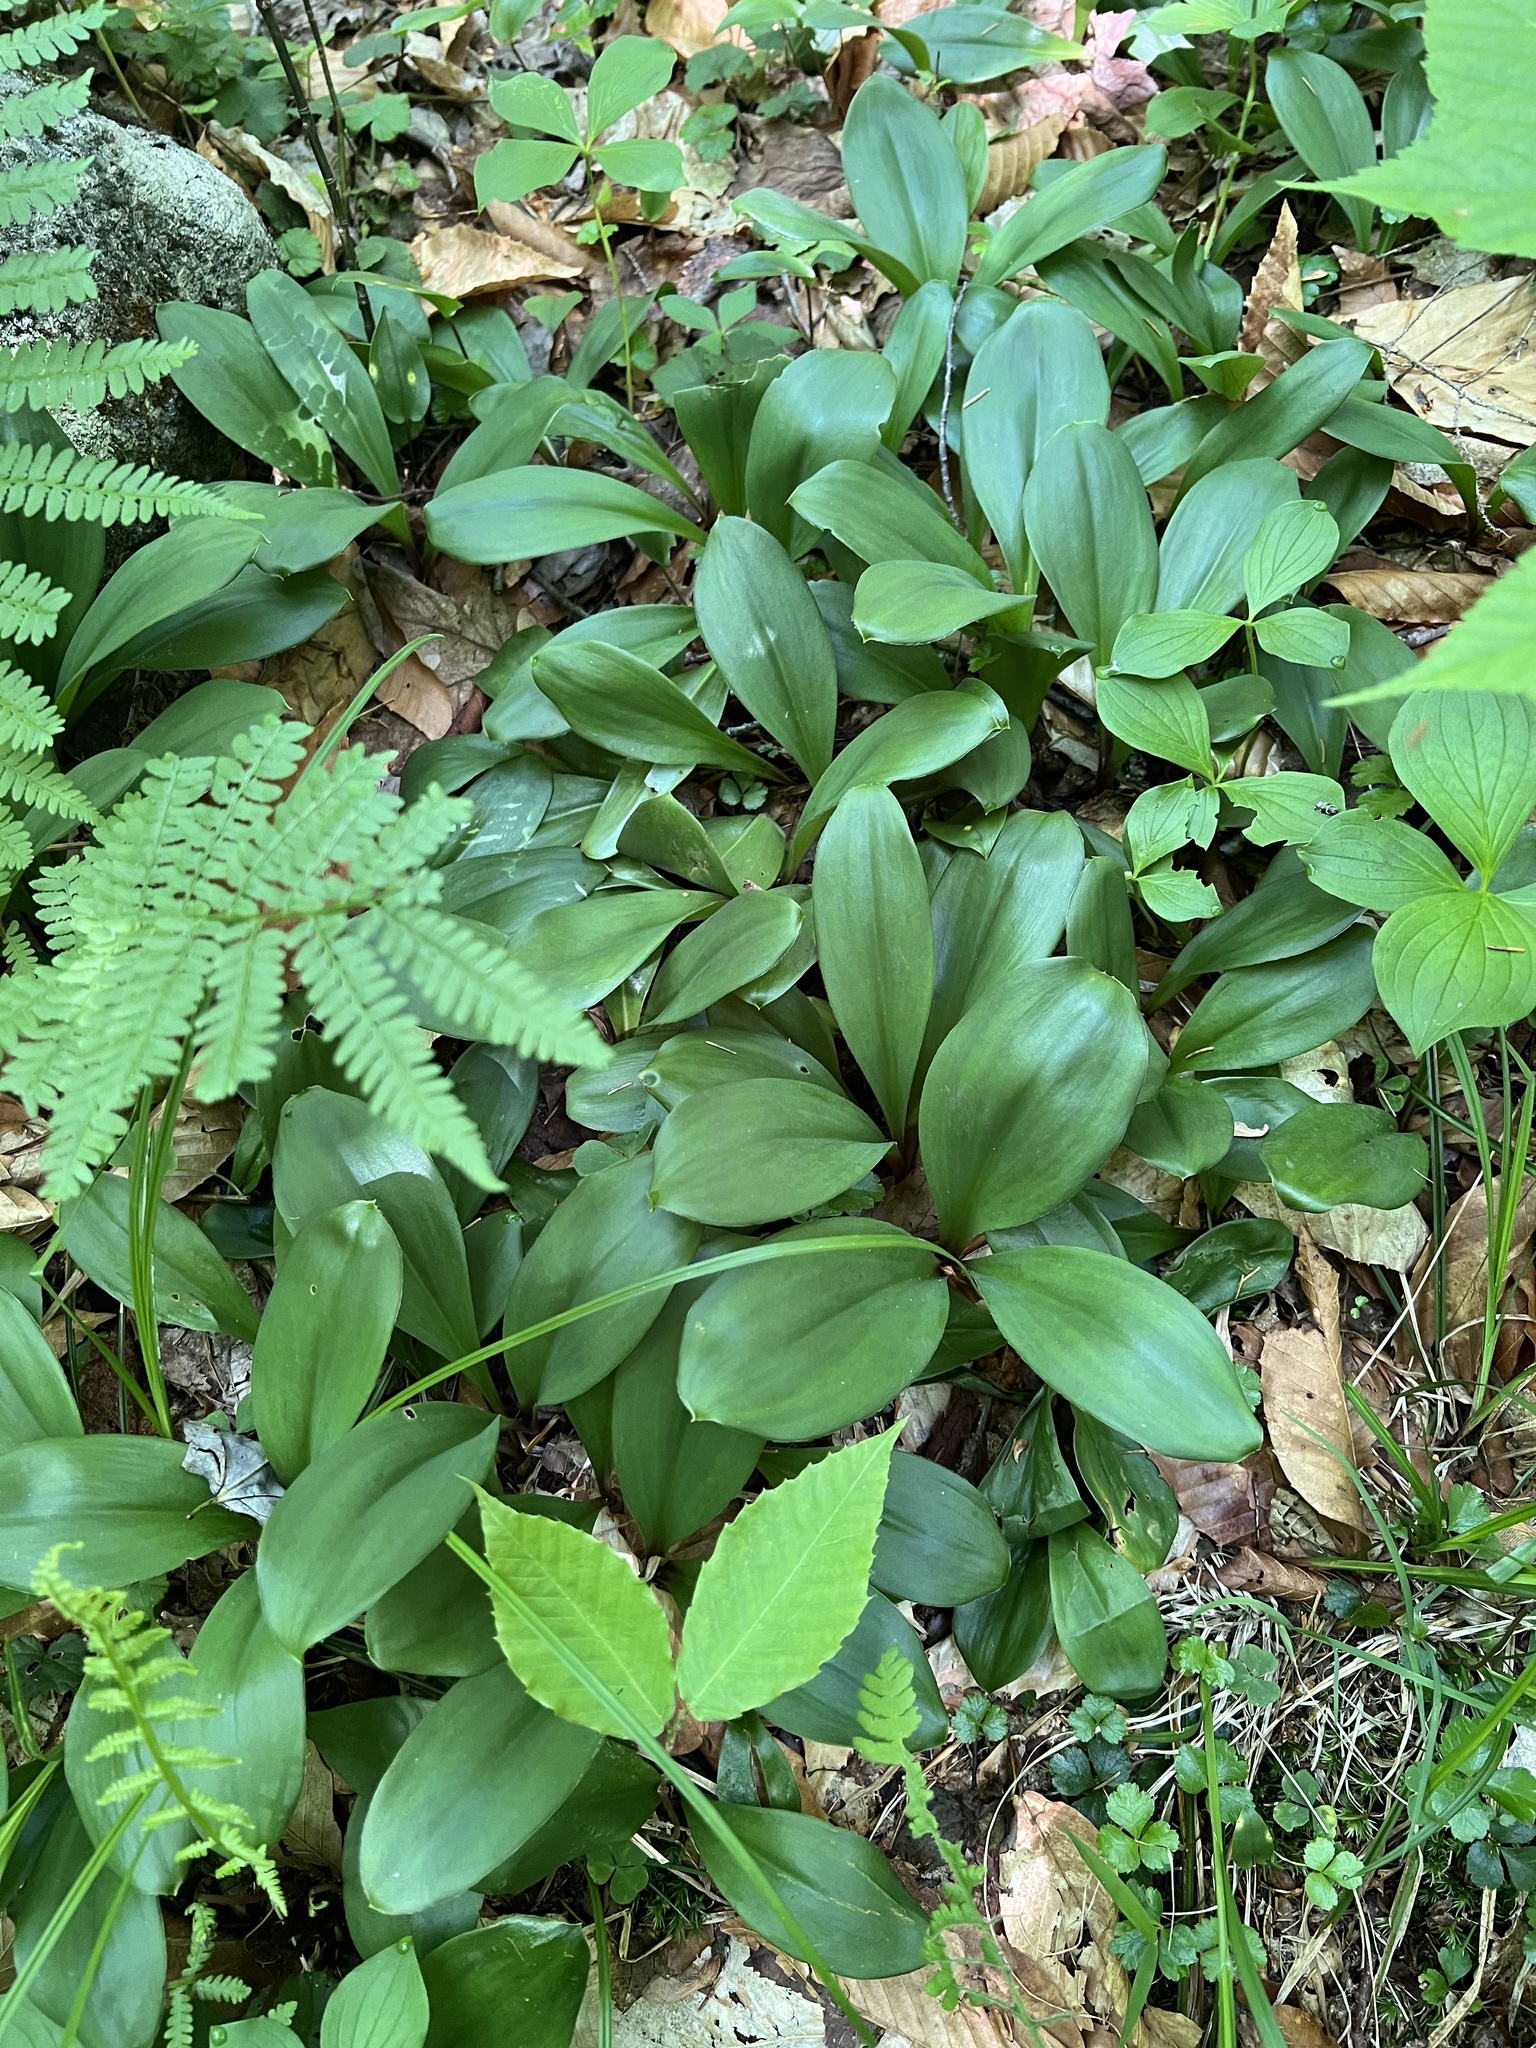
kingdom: Plantae
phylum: Tracheophyta
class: Liliopsida
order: Liliales
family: Liliaceae
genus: Clintonia
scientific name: Clintonia borealis
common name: Yellow clintonia
